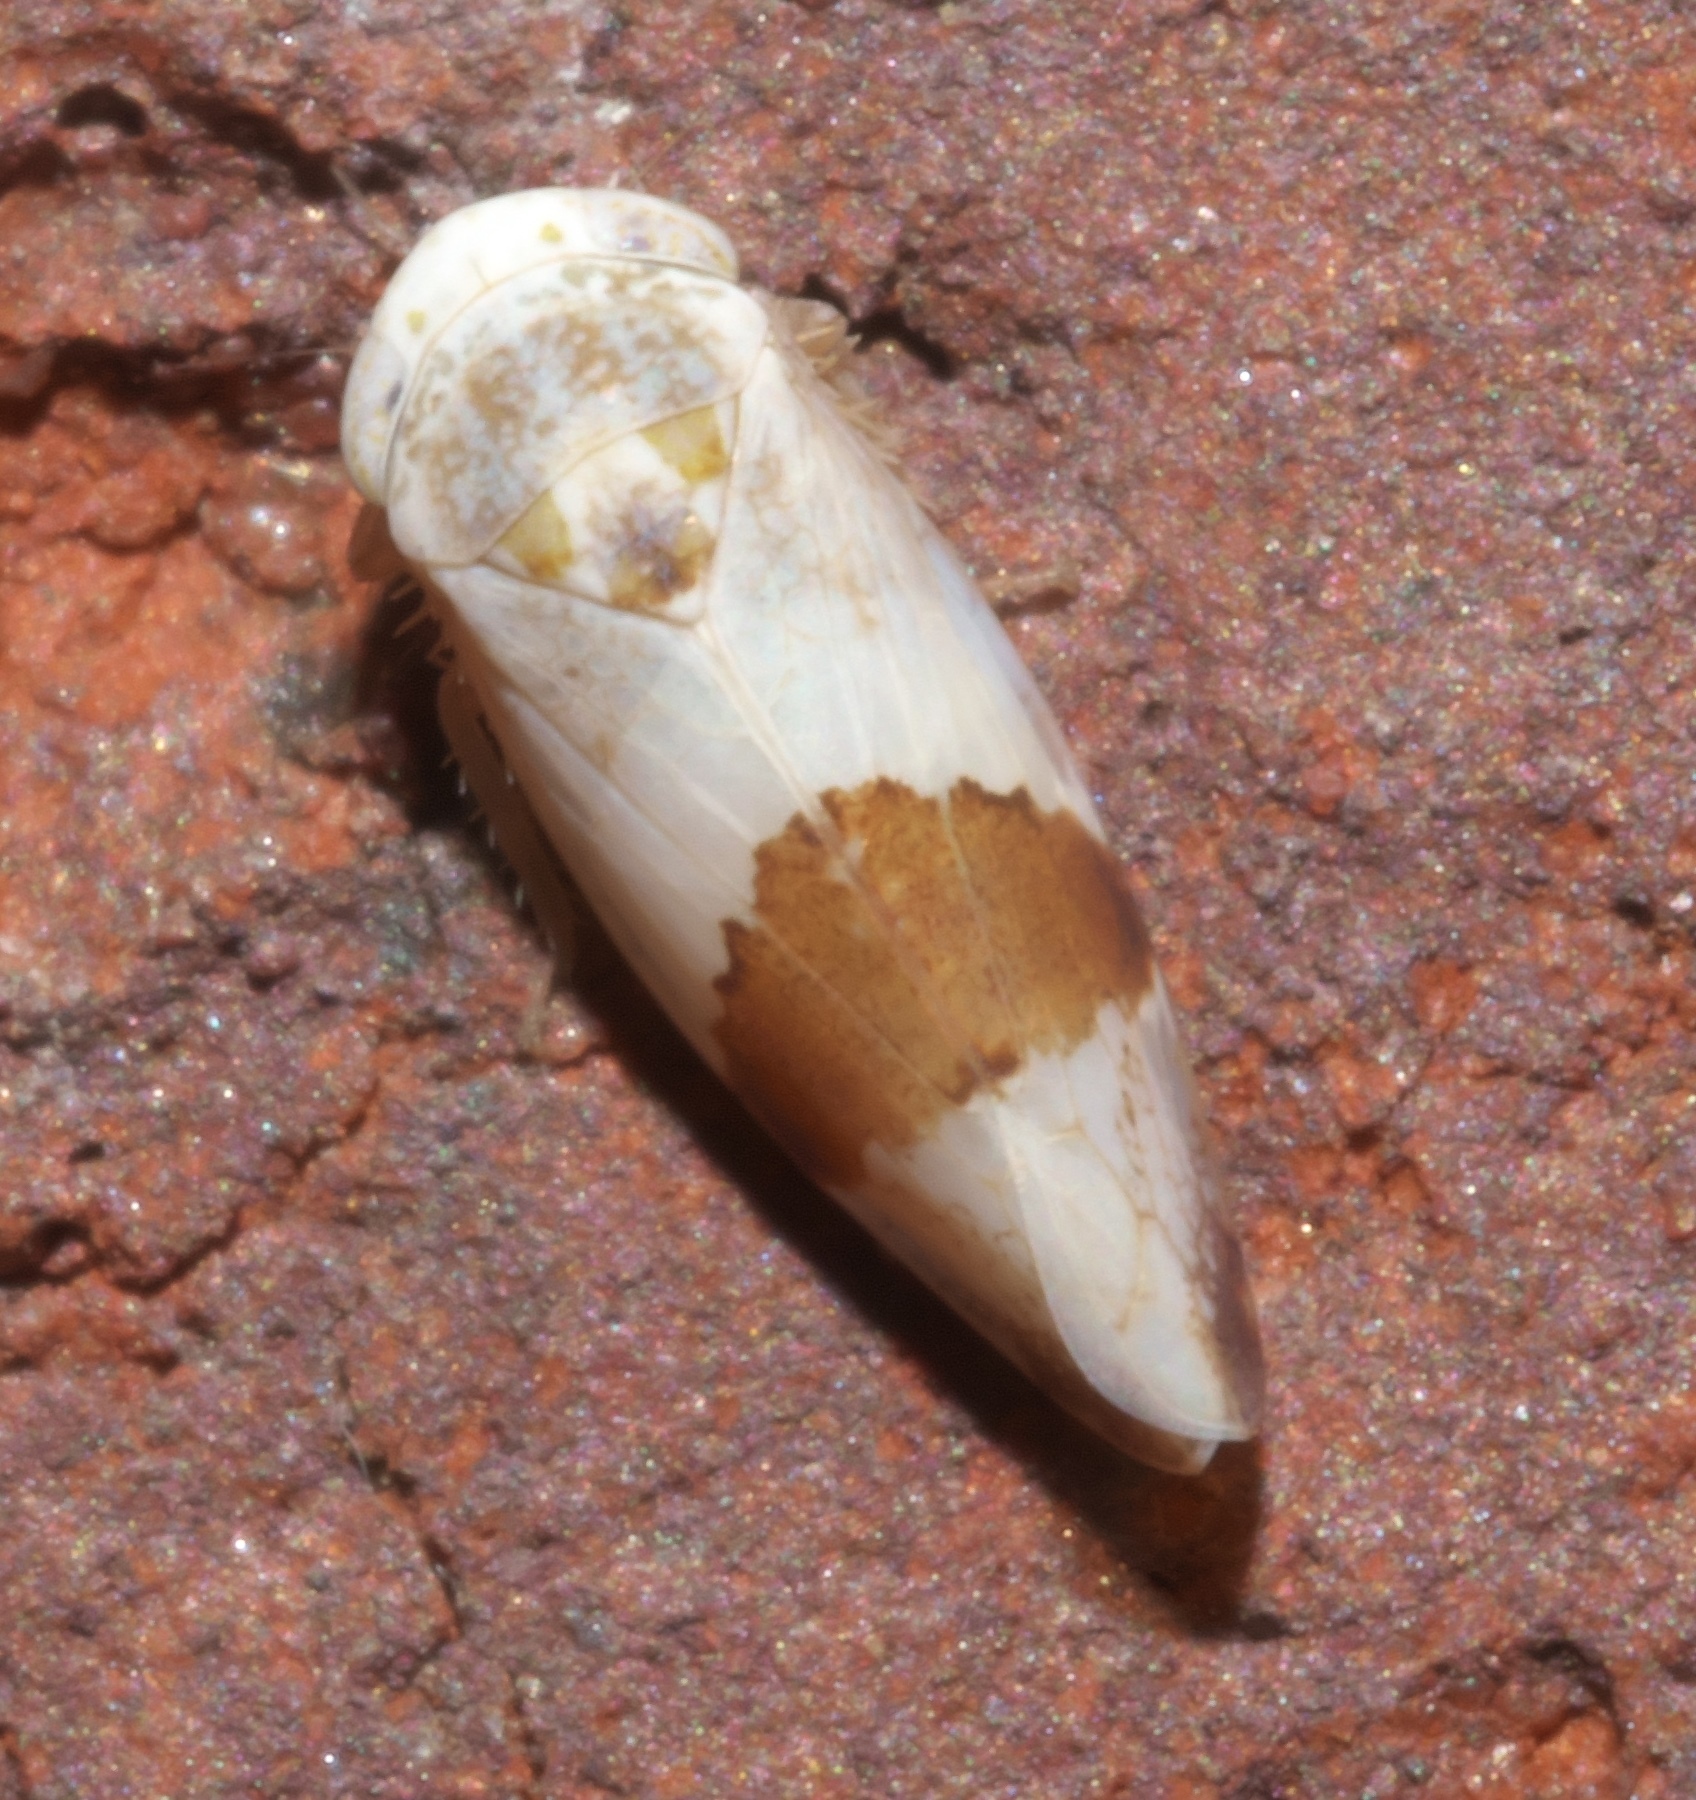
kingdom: Animalia
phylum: Arthropoda
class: Insecta
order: Hemiptera
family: Cicadellidae
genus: Norvellina
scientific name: Norvellina seminuda
